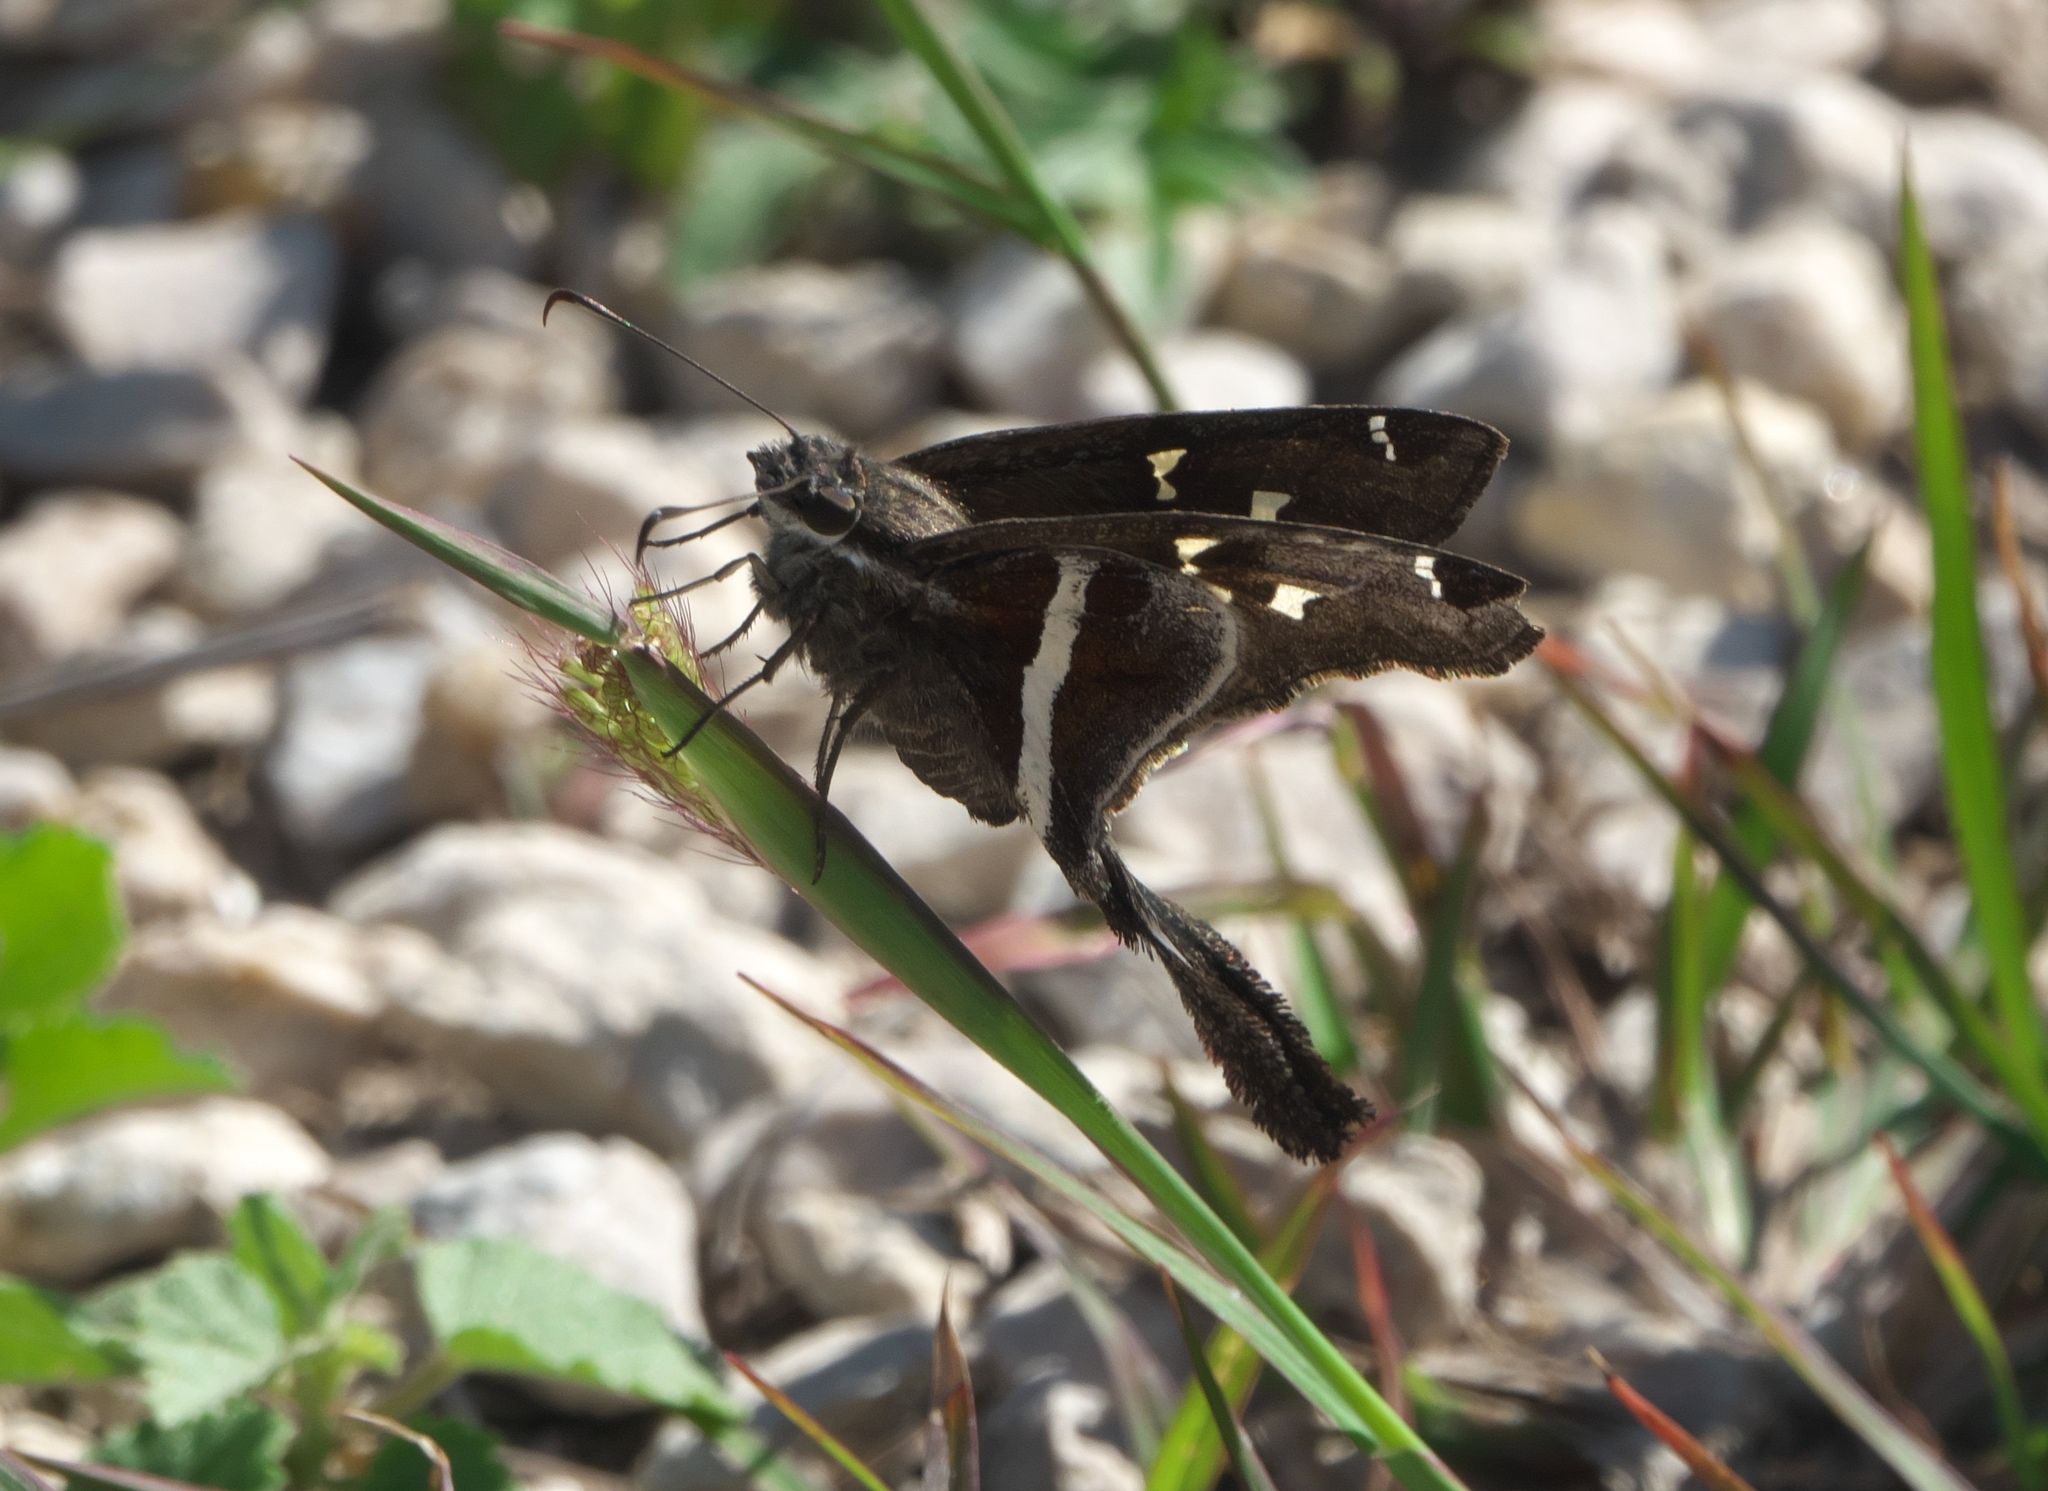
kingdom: Animalia
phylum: Arthropoda
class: Insecta
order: Lepidoptera
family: Hesperiidae
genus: Chioides
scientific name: Chioides catillus
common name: Silverbanded skipper
